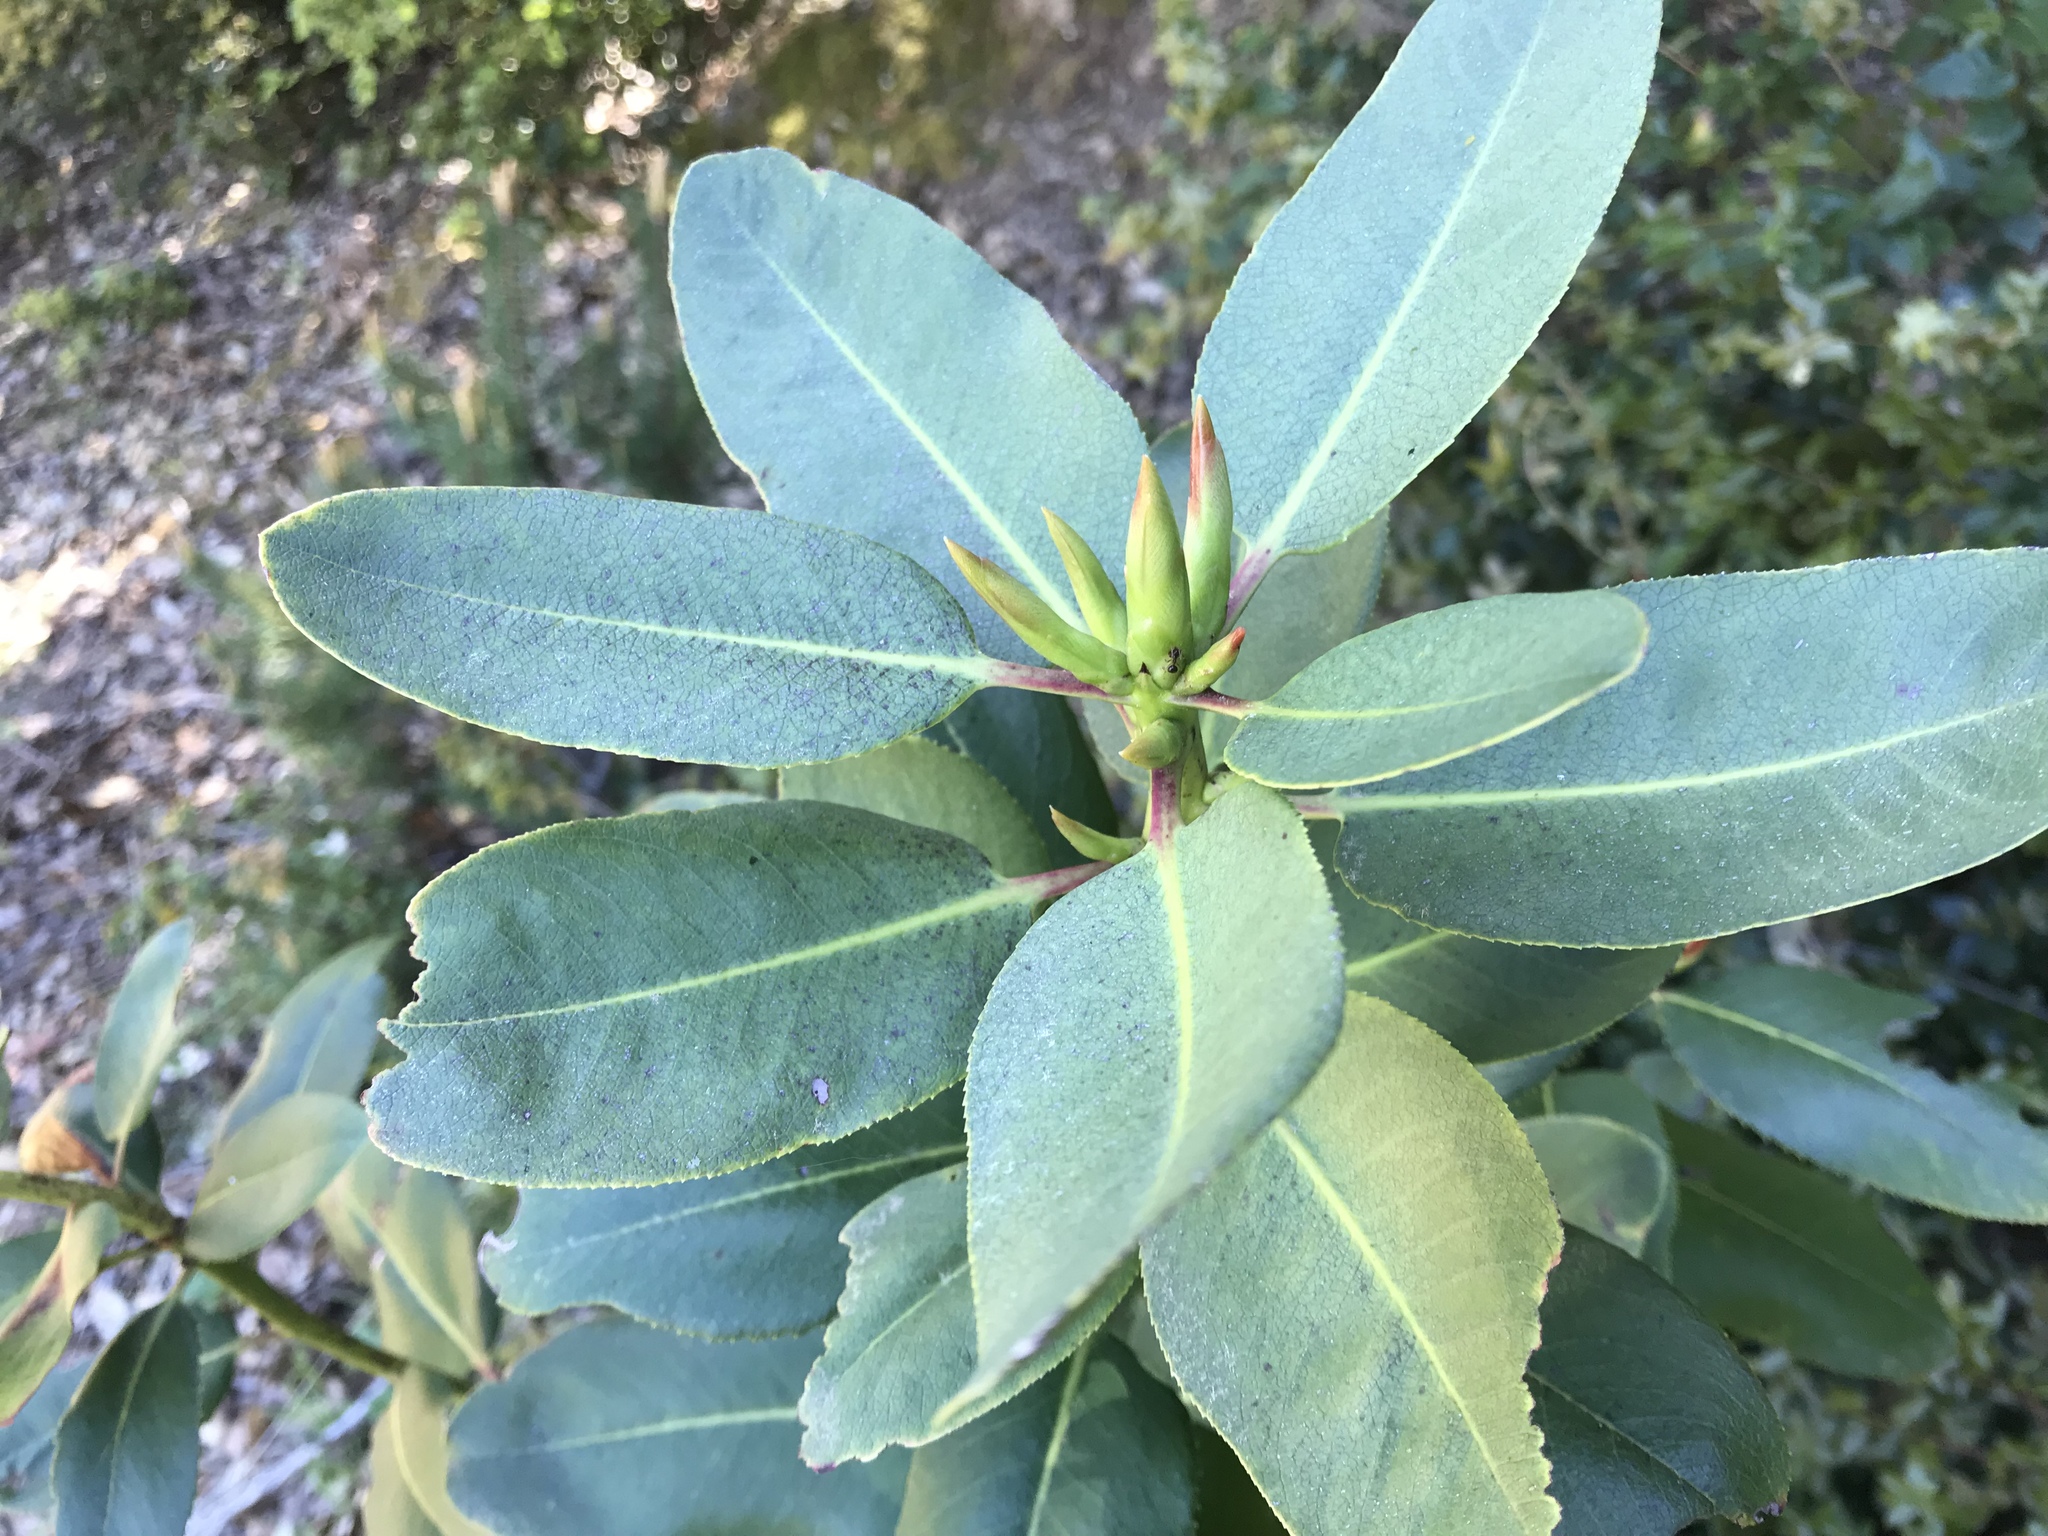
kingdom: Plantae
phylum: Tracheophyta
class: Magnoliopsida
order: Ericales
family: Ericaceae
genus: Arbutus
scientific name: Arbutus menziesii
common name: Pacific madrone
